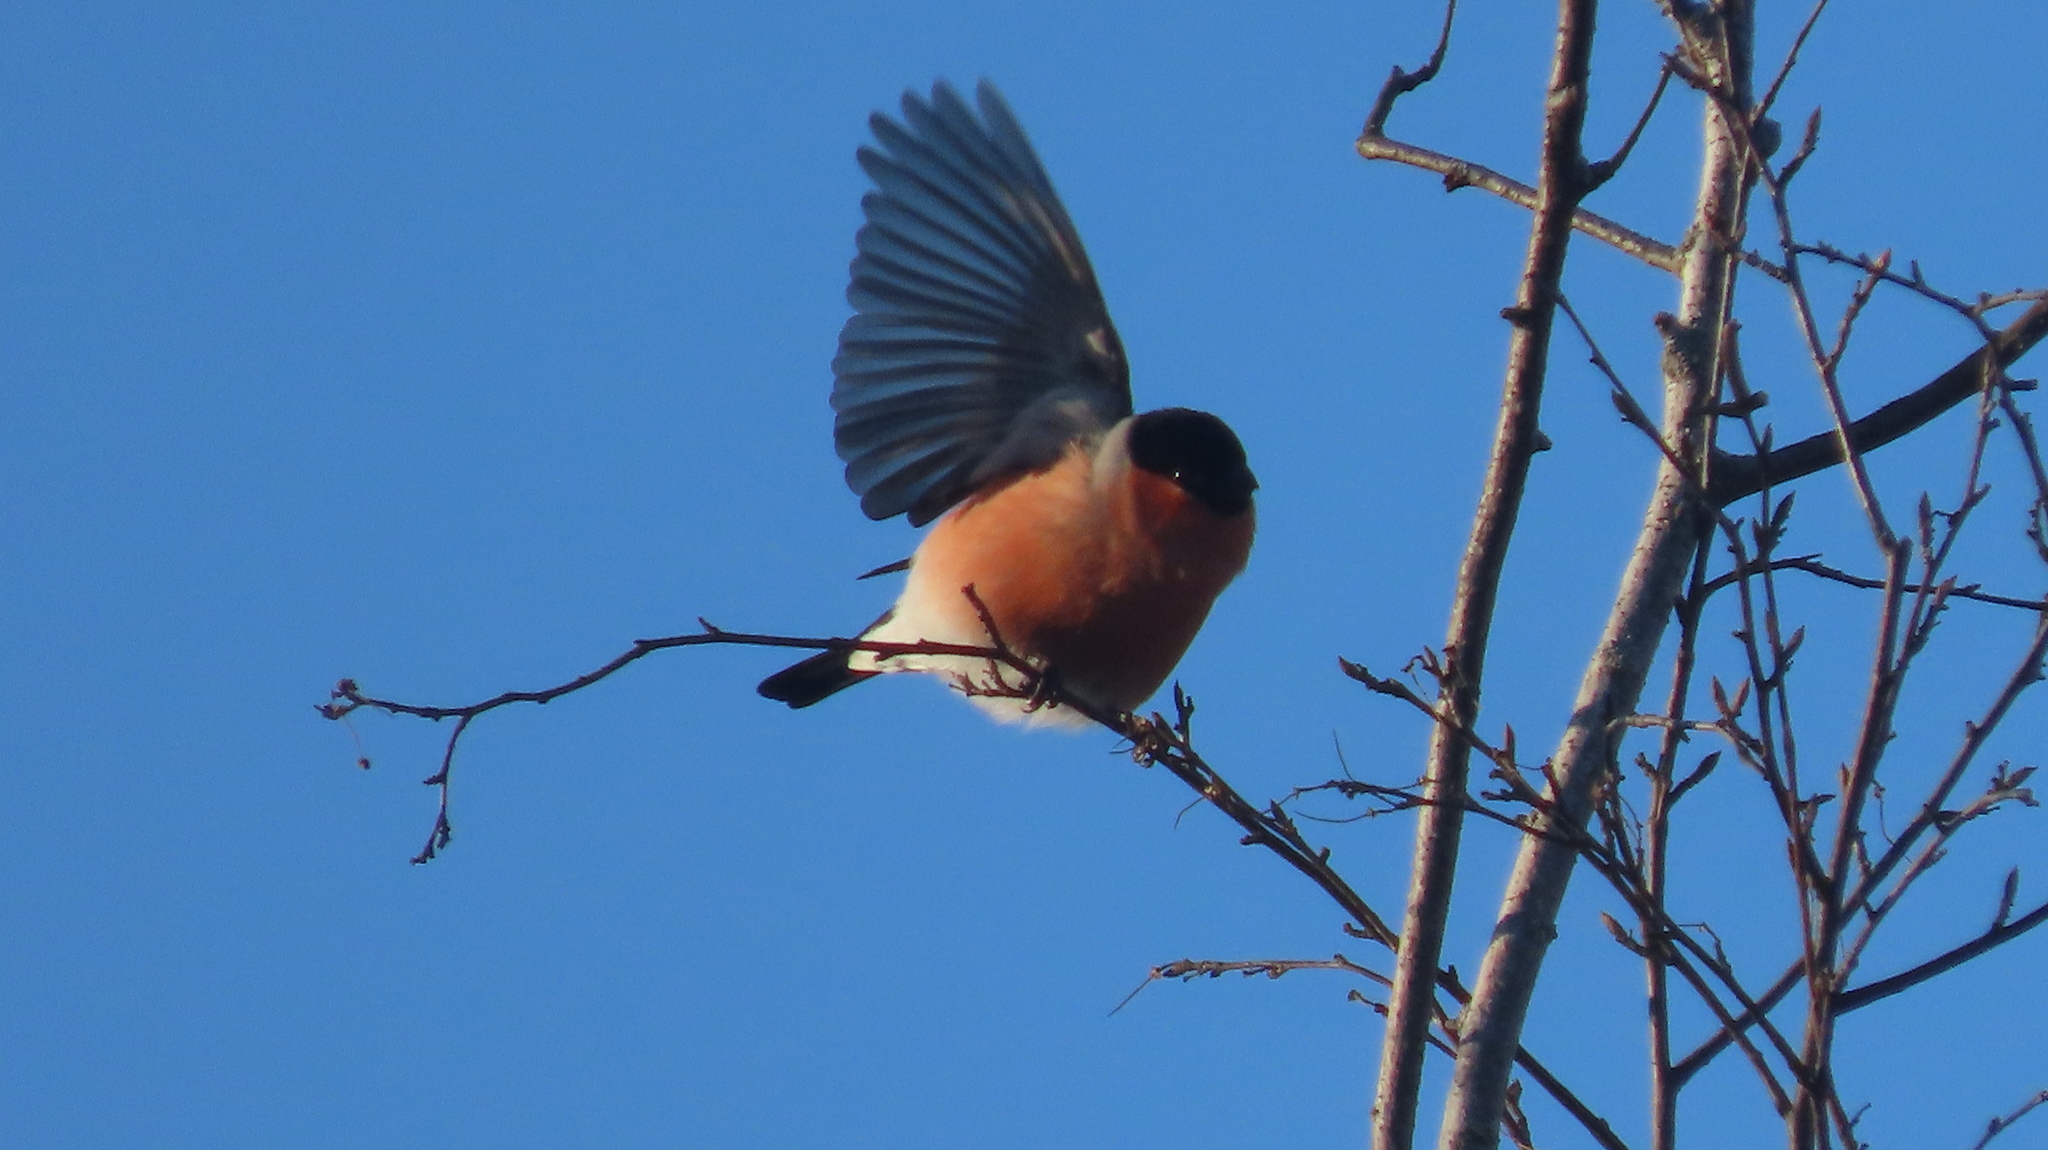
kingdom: Animalia
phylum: Chordata
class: Aves
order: Passeriformes
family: Fringillidae
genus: Pyrrhula
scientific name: Pyrrhula pyrrhula
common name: Eurasian bullfinch
